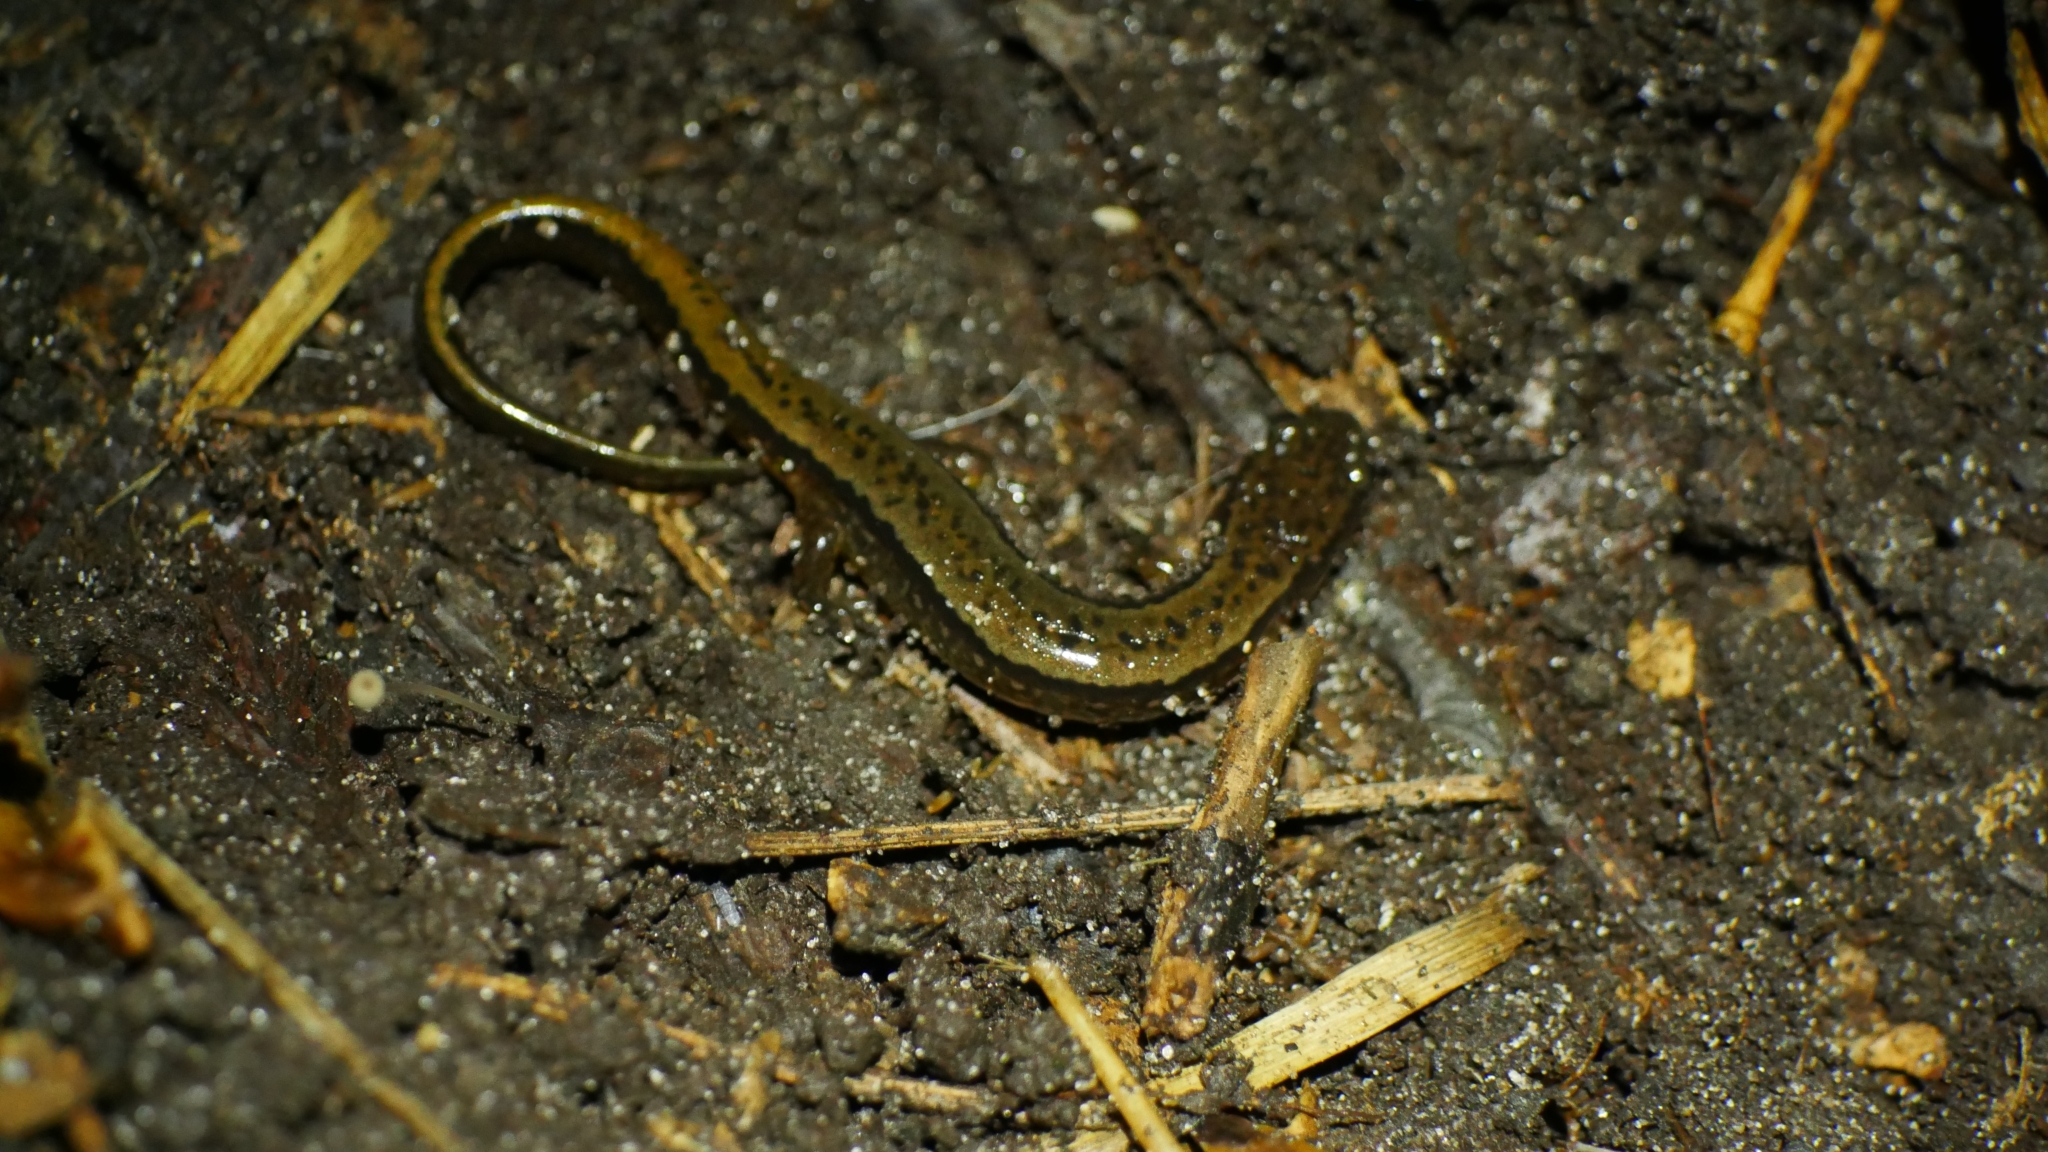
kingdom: Animalia
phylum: Chordata
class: Amphibia
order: Caudata
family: Plethodontidae
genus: Eurycea
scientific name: Eurycea cirrigera
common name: Southern two-lined salamander
